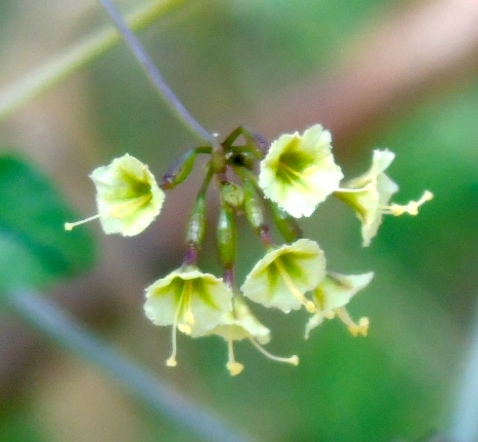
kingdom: Plantae
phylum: Tracheophyta
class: Magnoliopsida
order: Caryophyllales
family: Nyctaginaceae
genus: Commicarpus
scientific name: Commicarpus scandens
